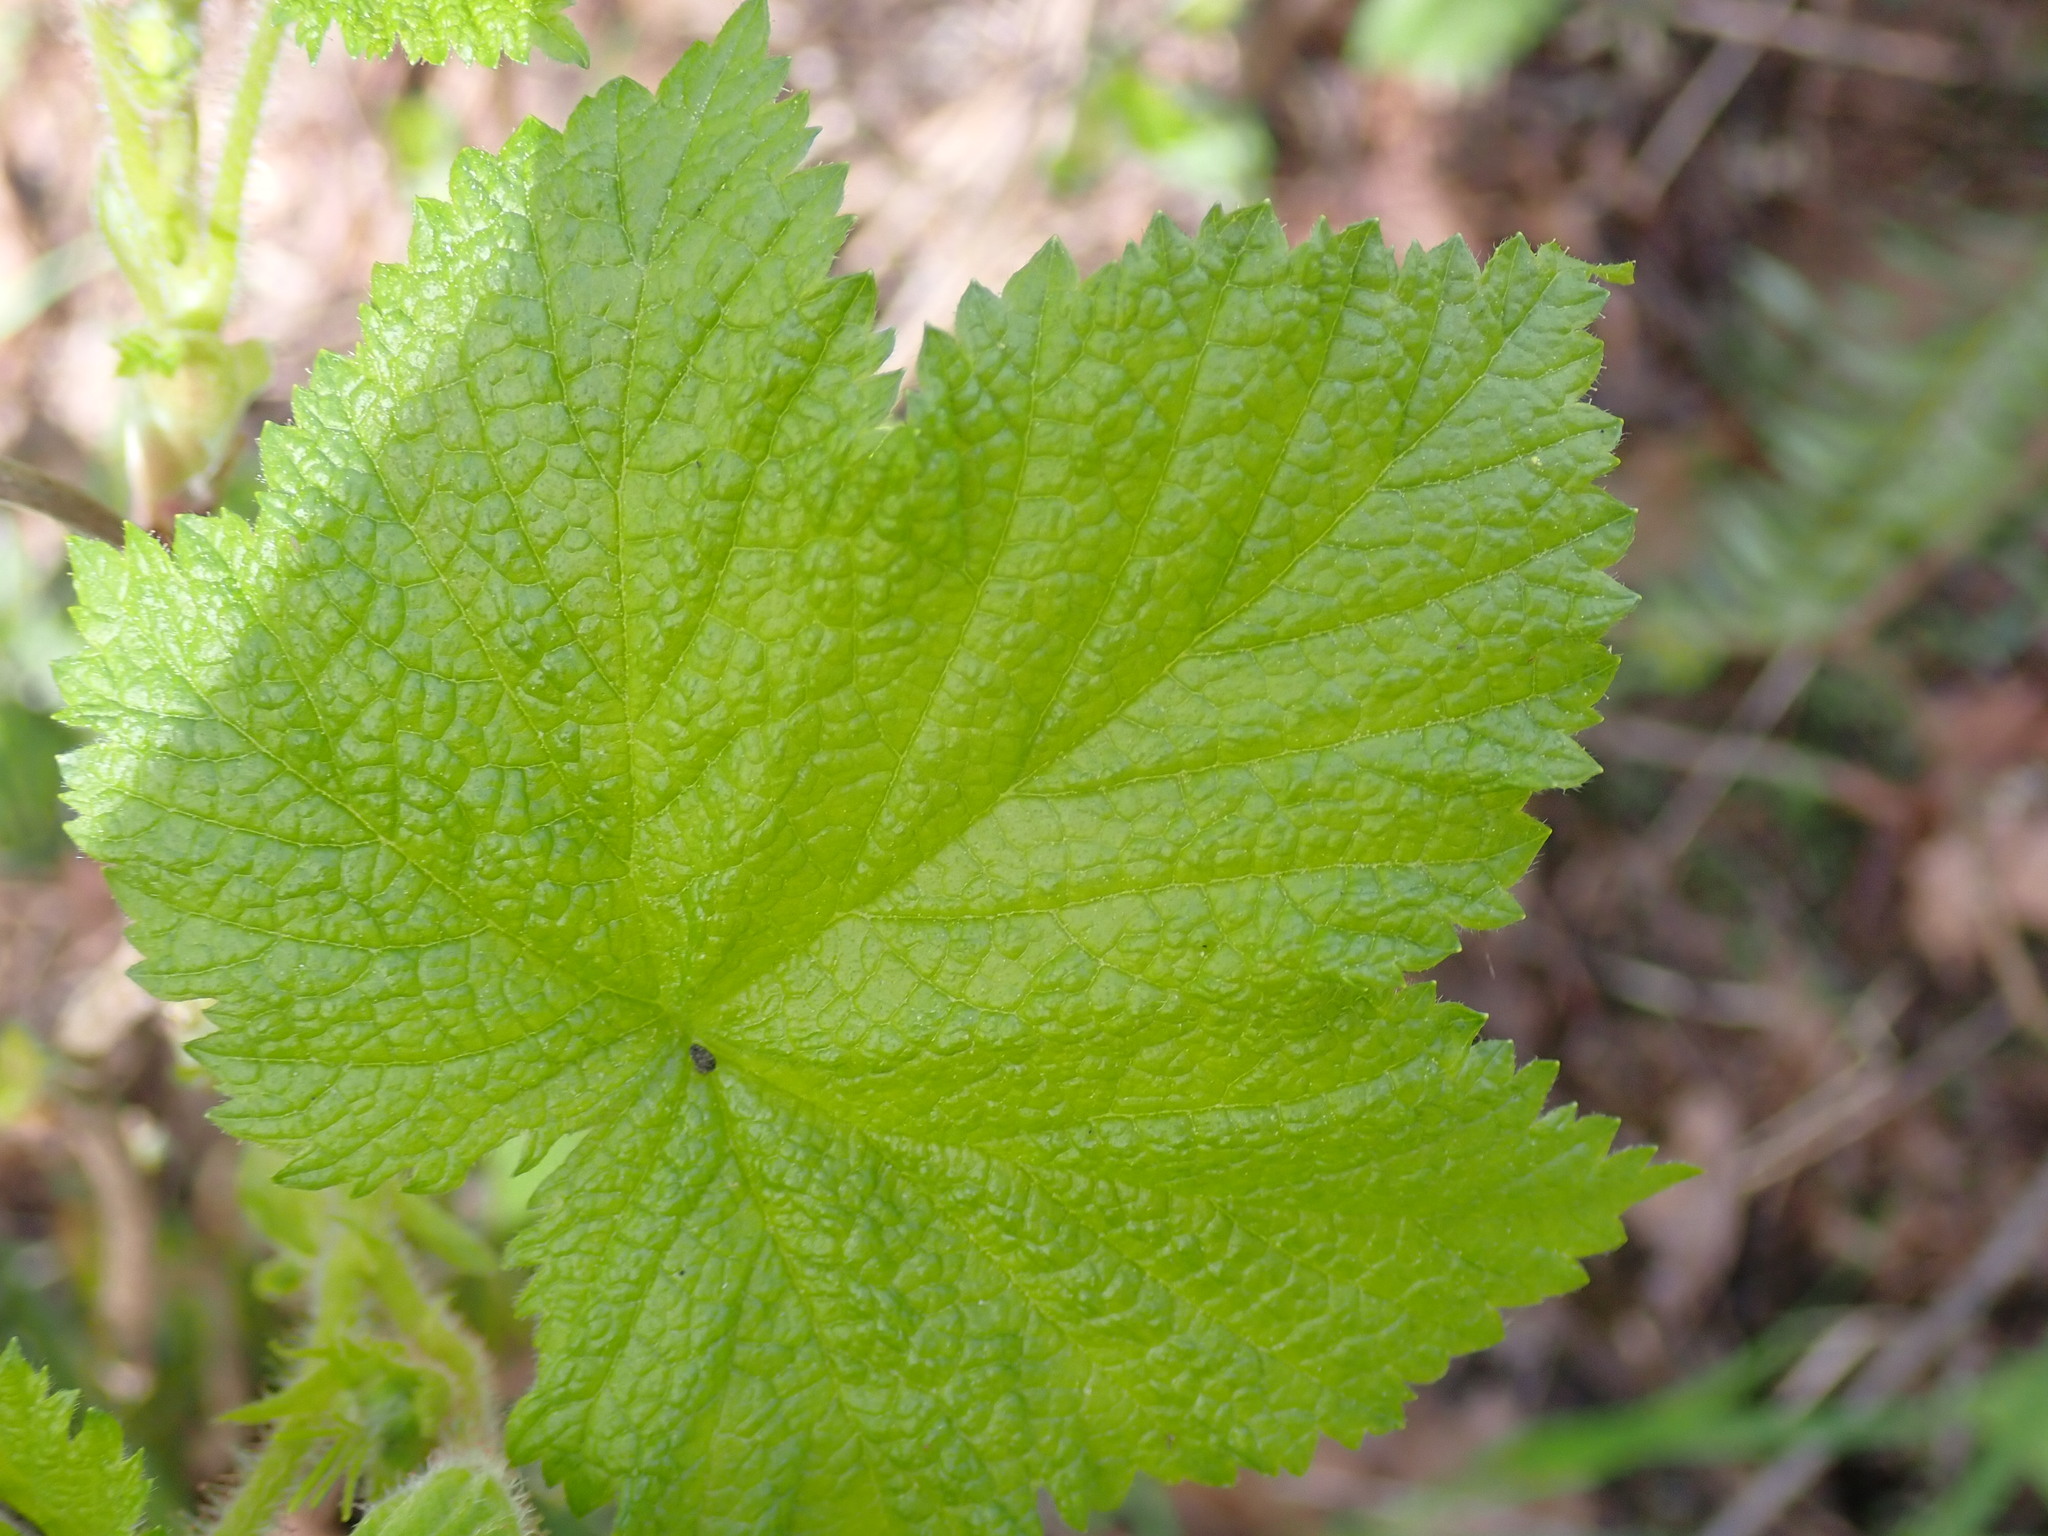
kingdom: Plantae
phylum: Tracheophyta
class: Magnoliopsida
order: Rosales
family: Rosaceae
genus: Rubus
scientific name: Rubus parviflorus
